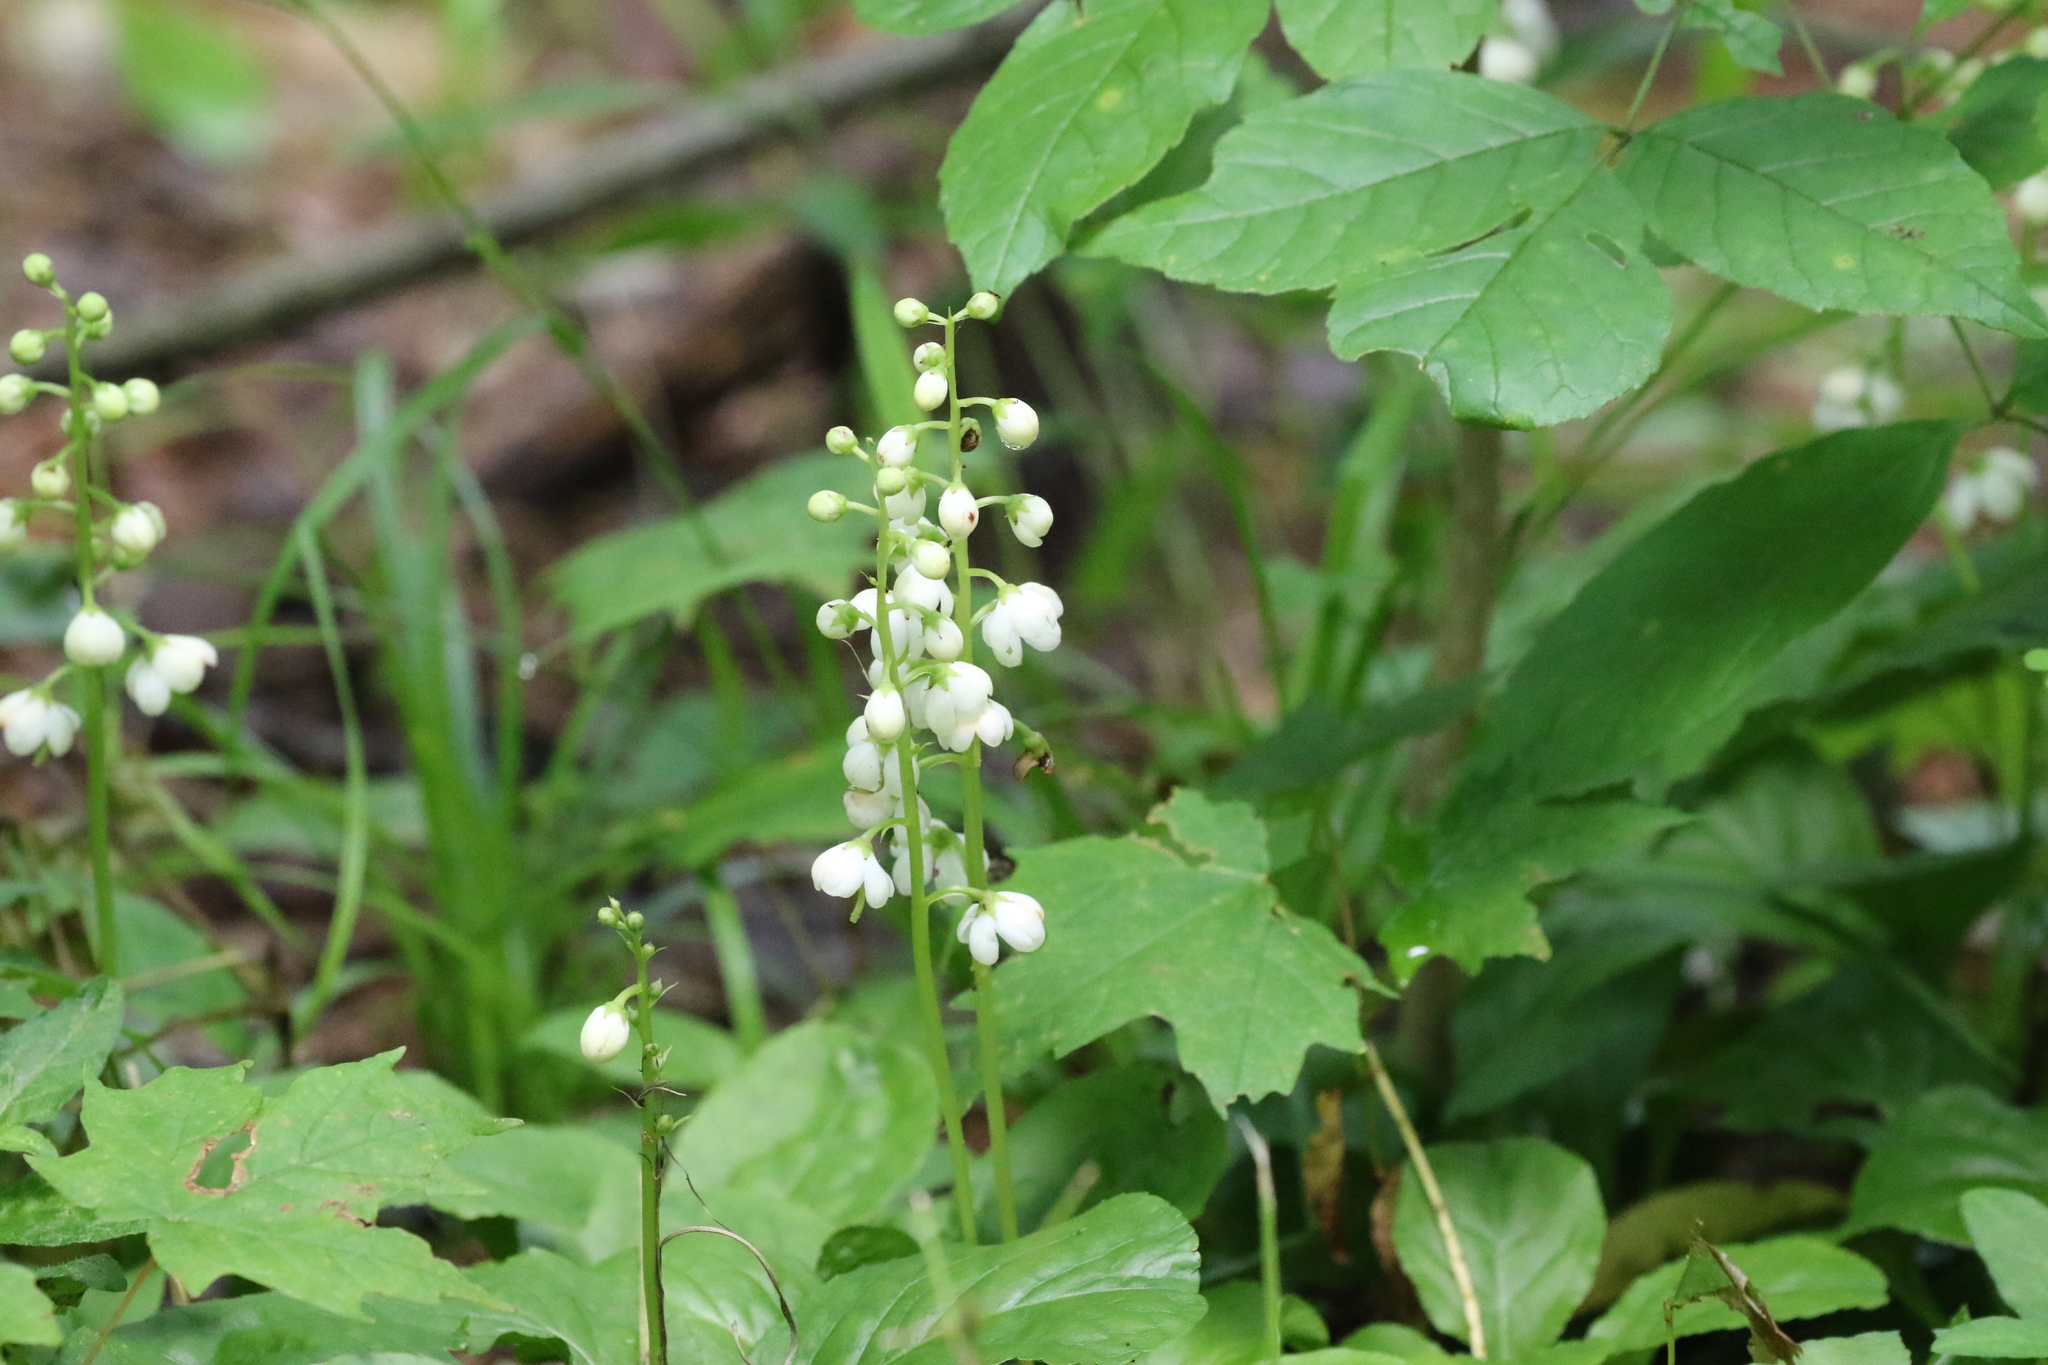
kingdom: Plantae
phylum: Tracheophyta
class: Magnoliopsida
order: Ericales
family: Ericaceae
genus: Pyrola
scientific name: Pyrola elliptica
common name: Shinleaf
